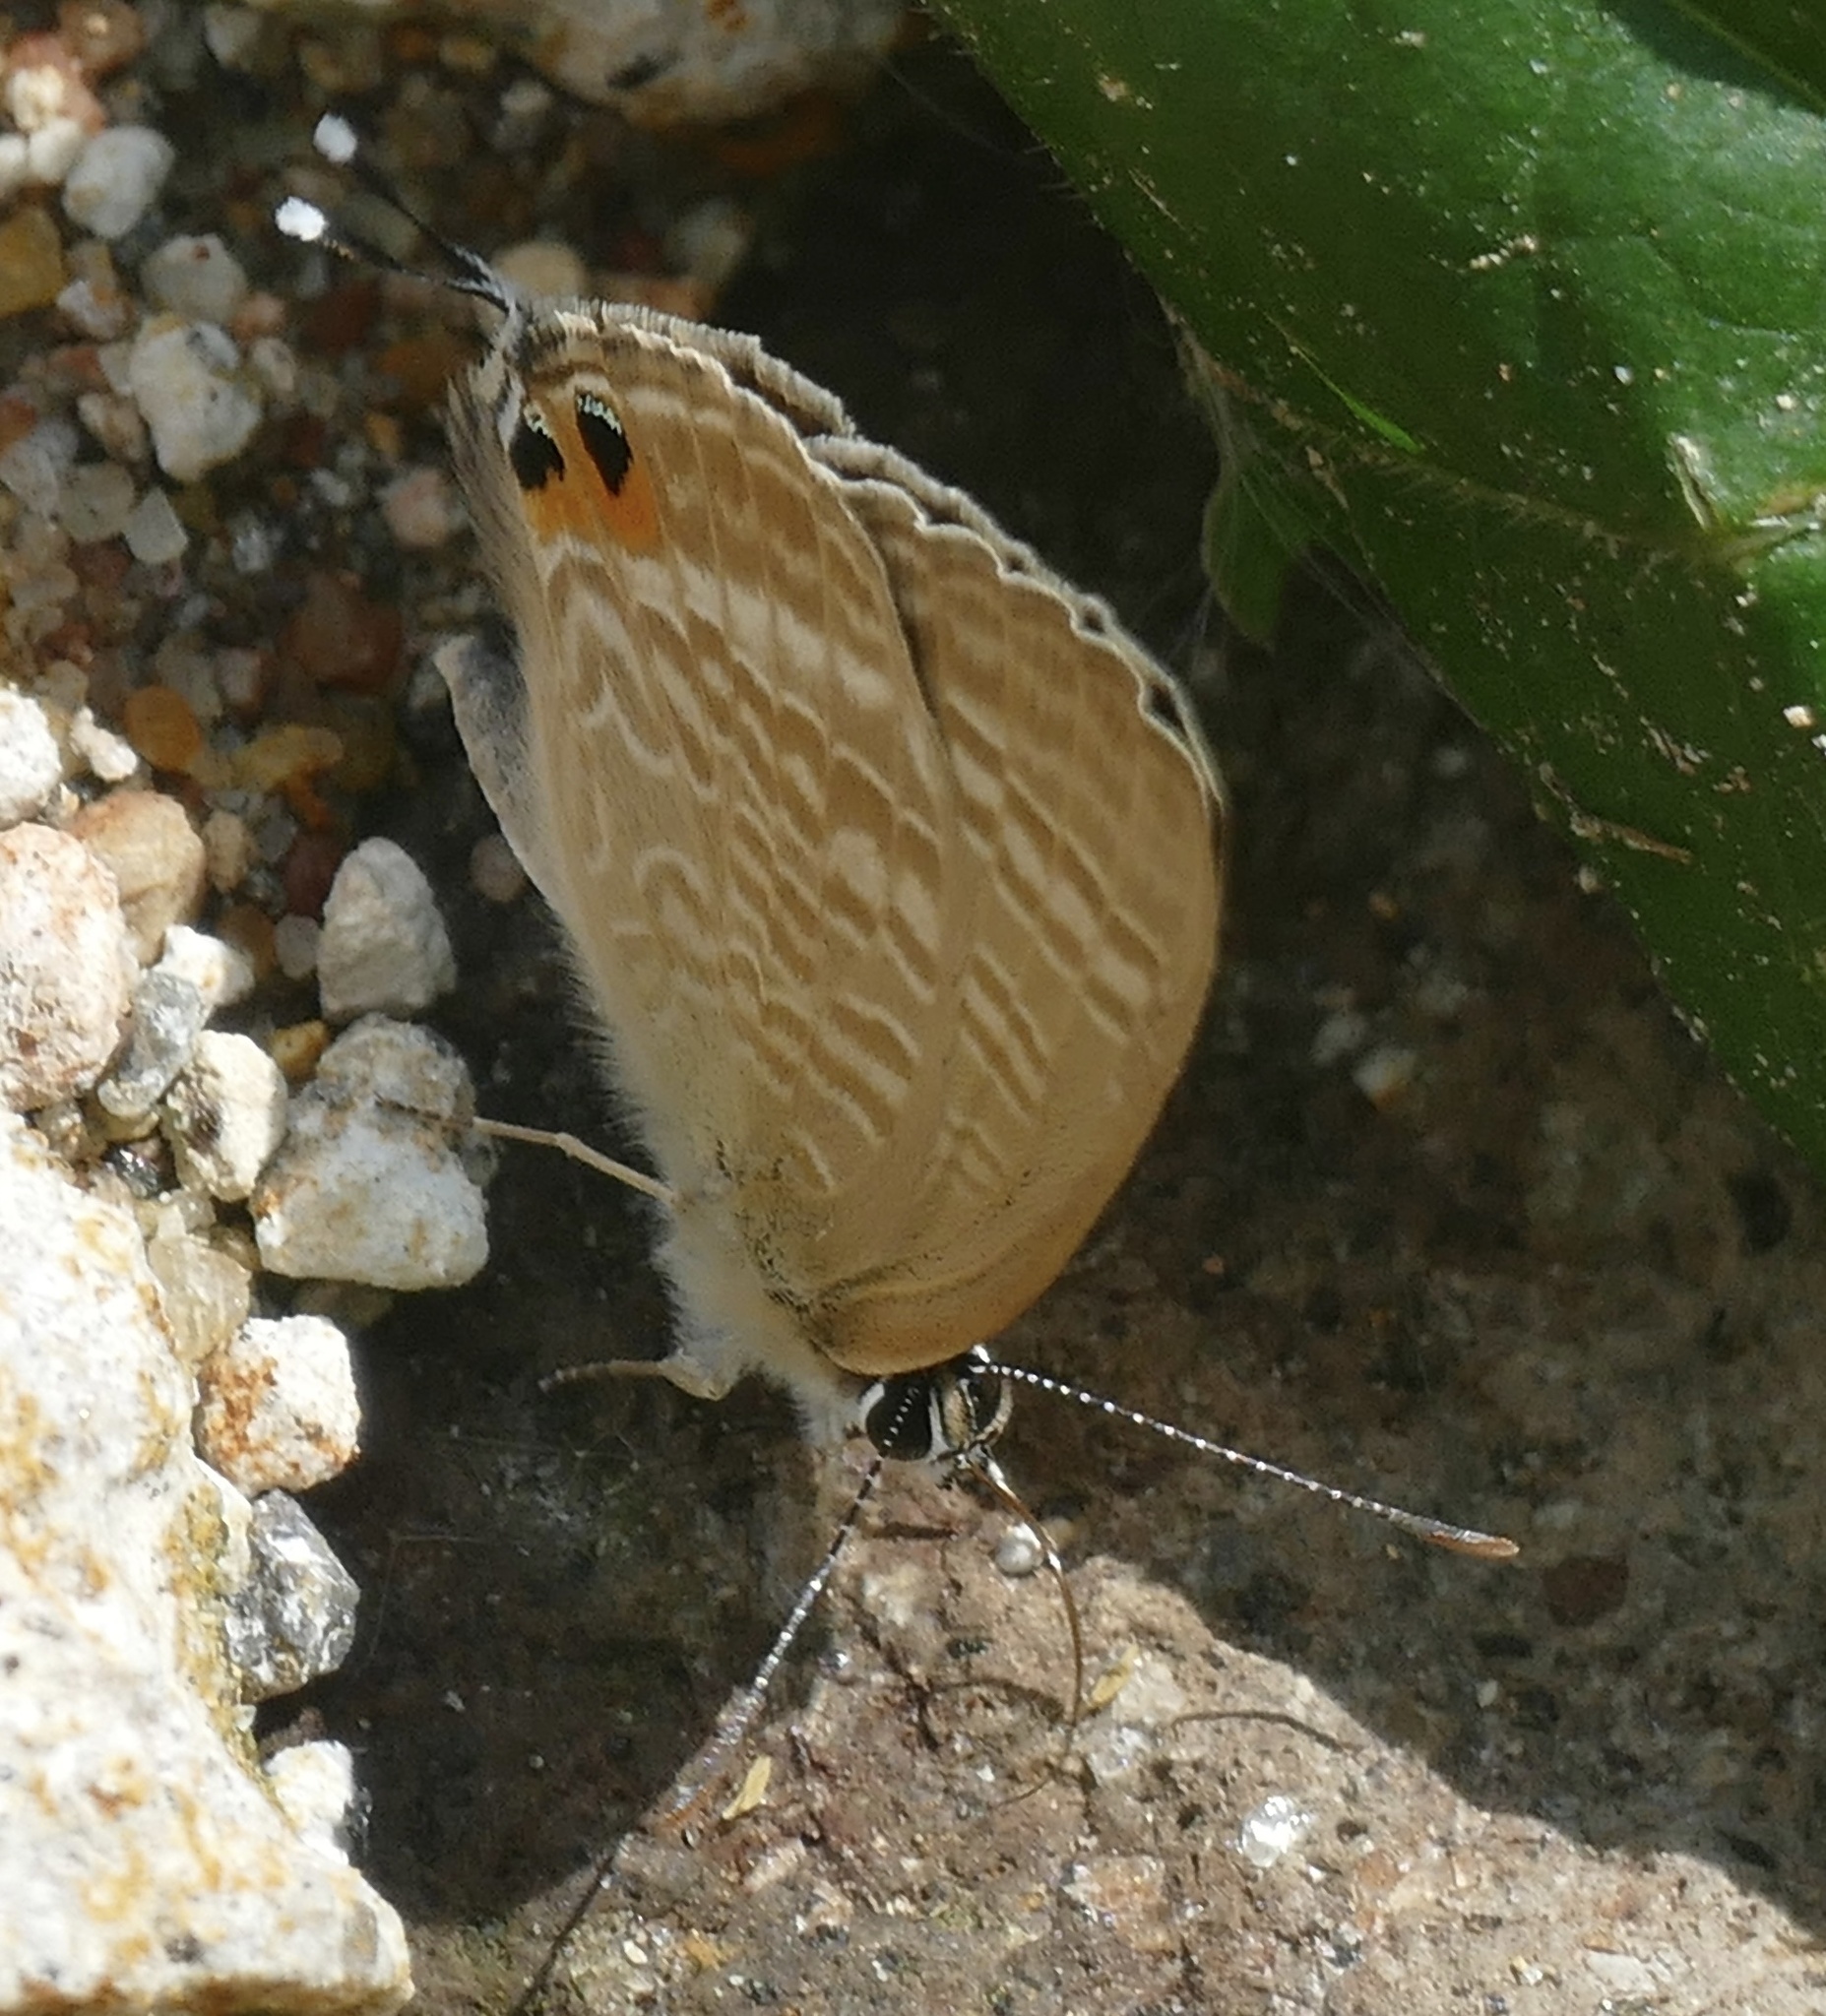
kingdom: Animalia
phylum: Arthropoda
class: Insecta
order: Lepidoptera
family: Lycaenidae
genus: Lampides
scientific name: Lampides boeticus
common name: Long-tailed blue
